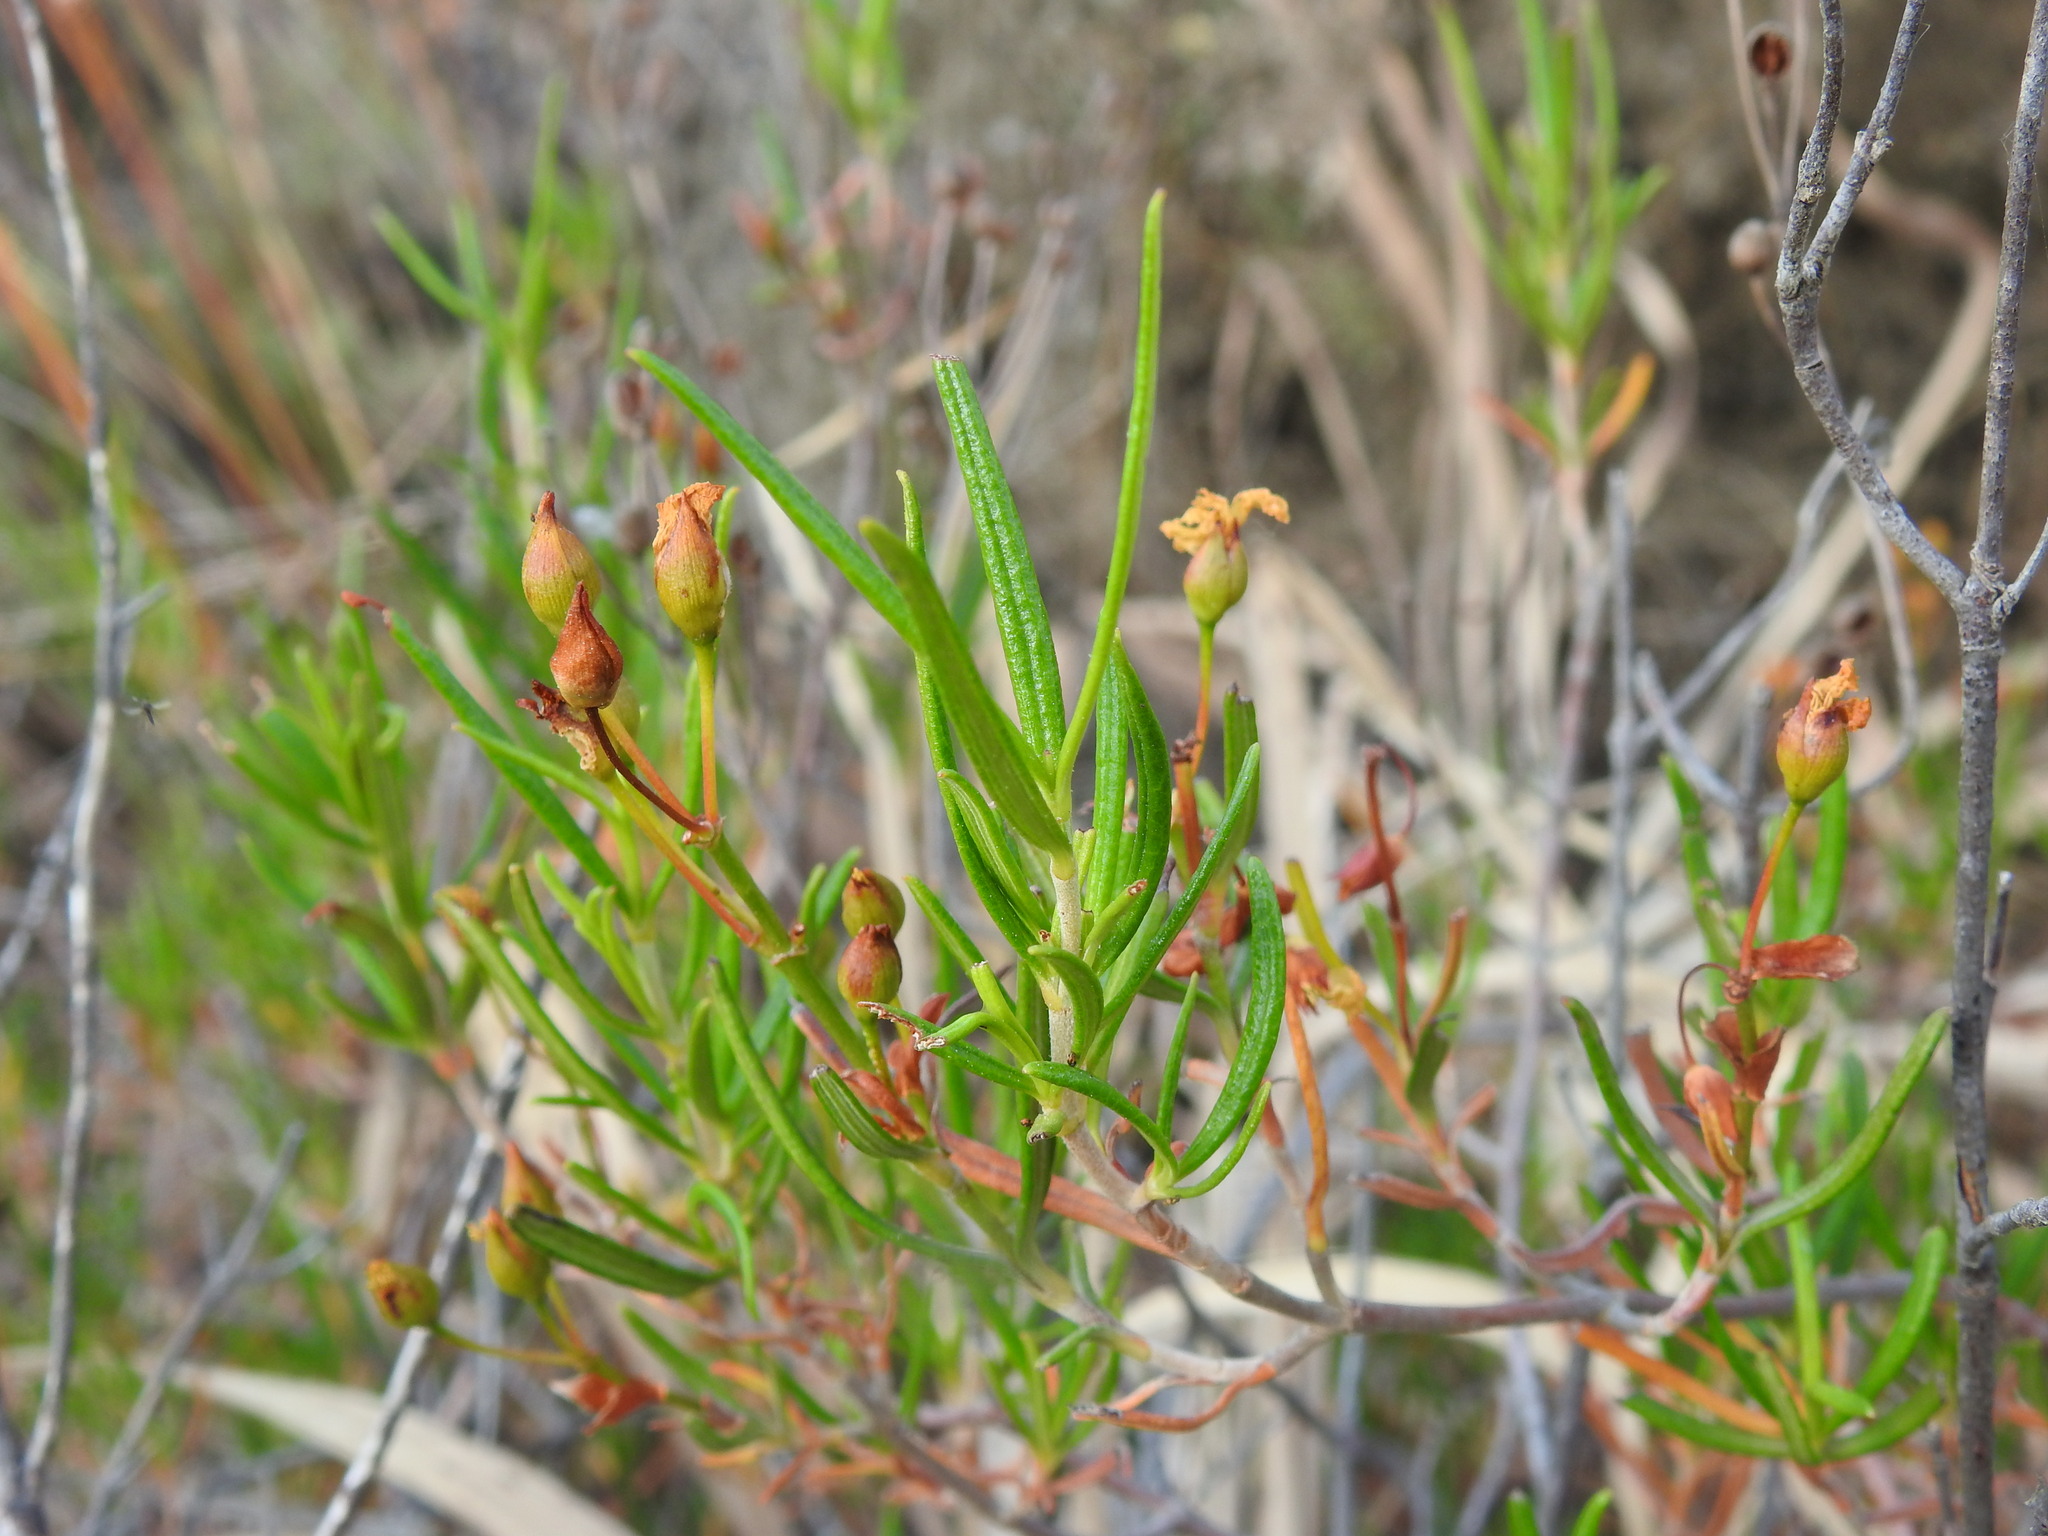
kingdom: Plantae
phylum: Tracheophyta
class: Magnoliopsida
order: Malvales
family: Cistaceae
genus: Cistus
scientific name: Cistus libanotis
